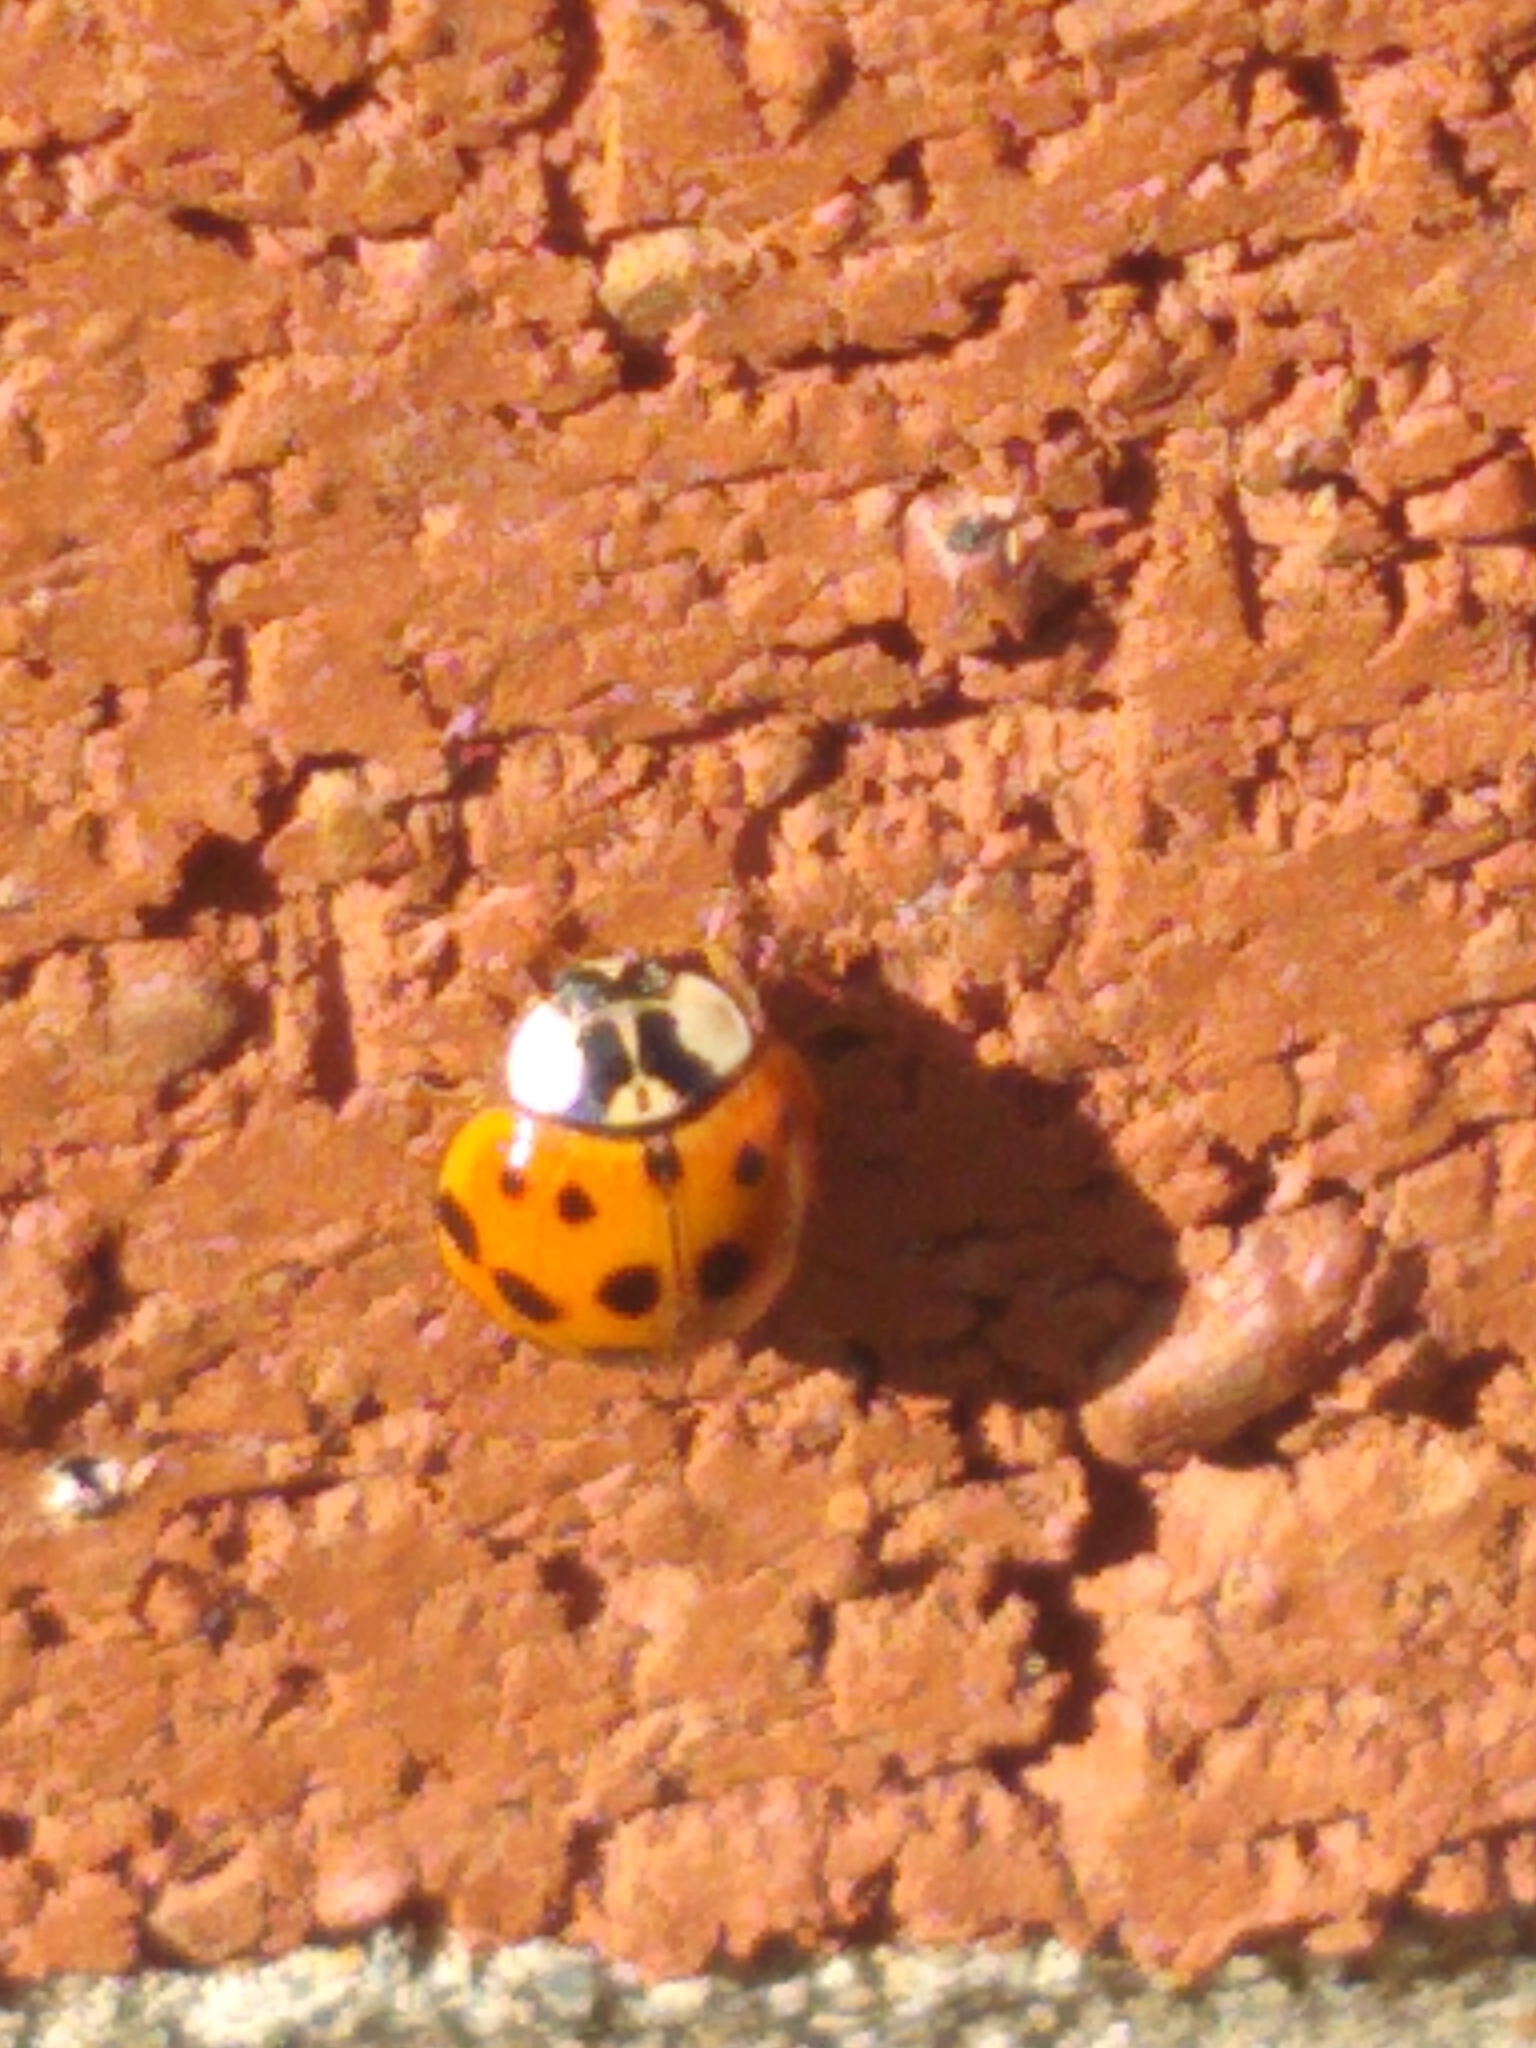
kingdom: Animalia
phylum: Arthropoda
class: Insecta
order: Coleoptera
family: Coccinellidae
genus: Harmonia
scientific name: Harmonia axyridis
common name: Harlequin ladybird
